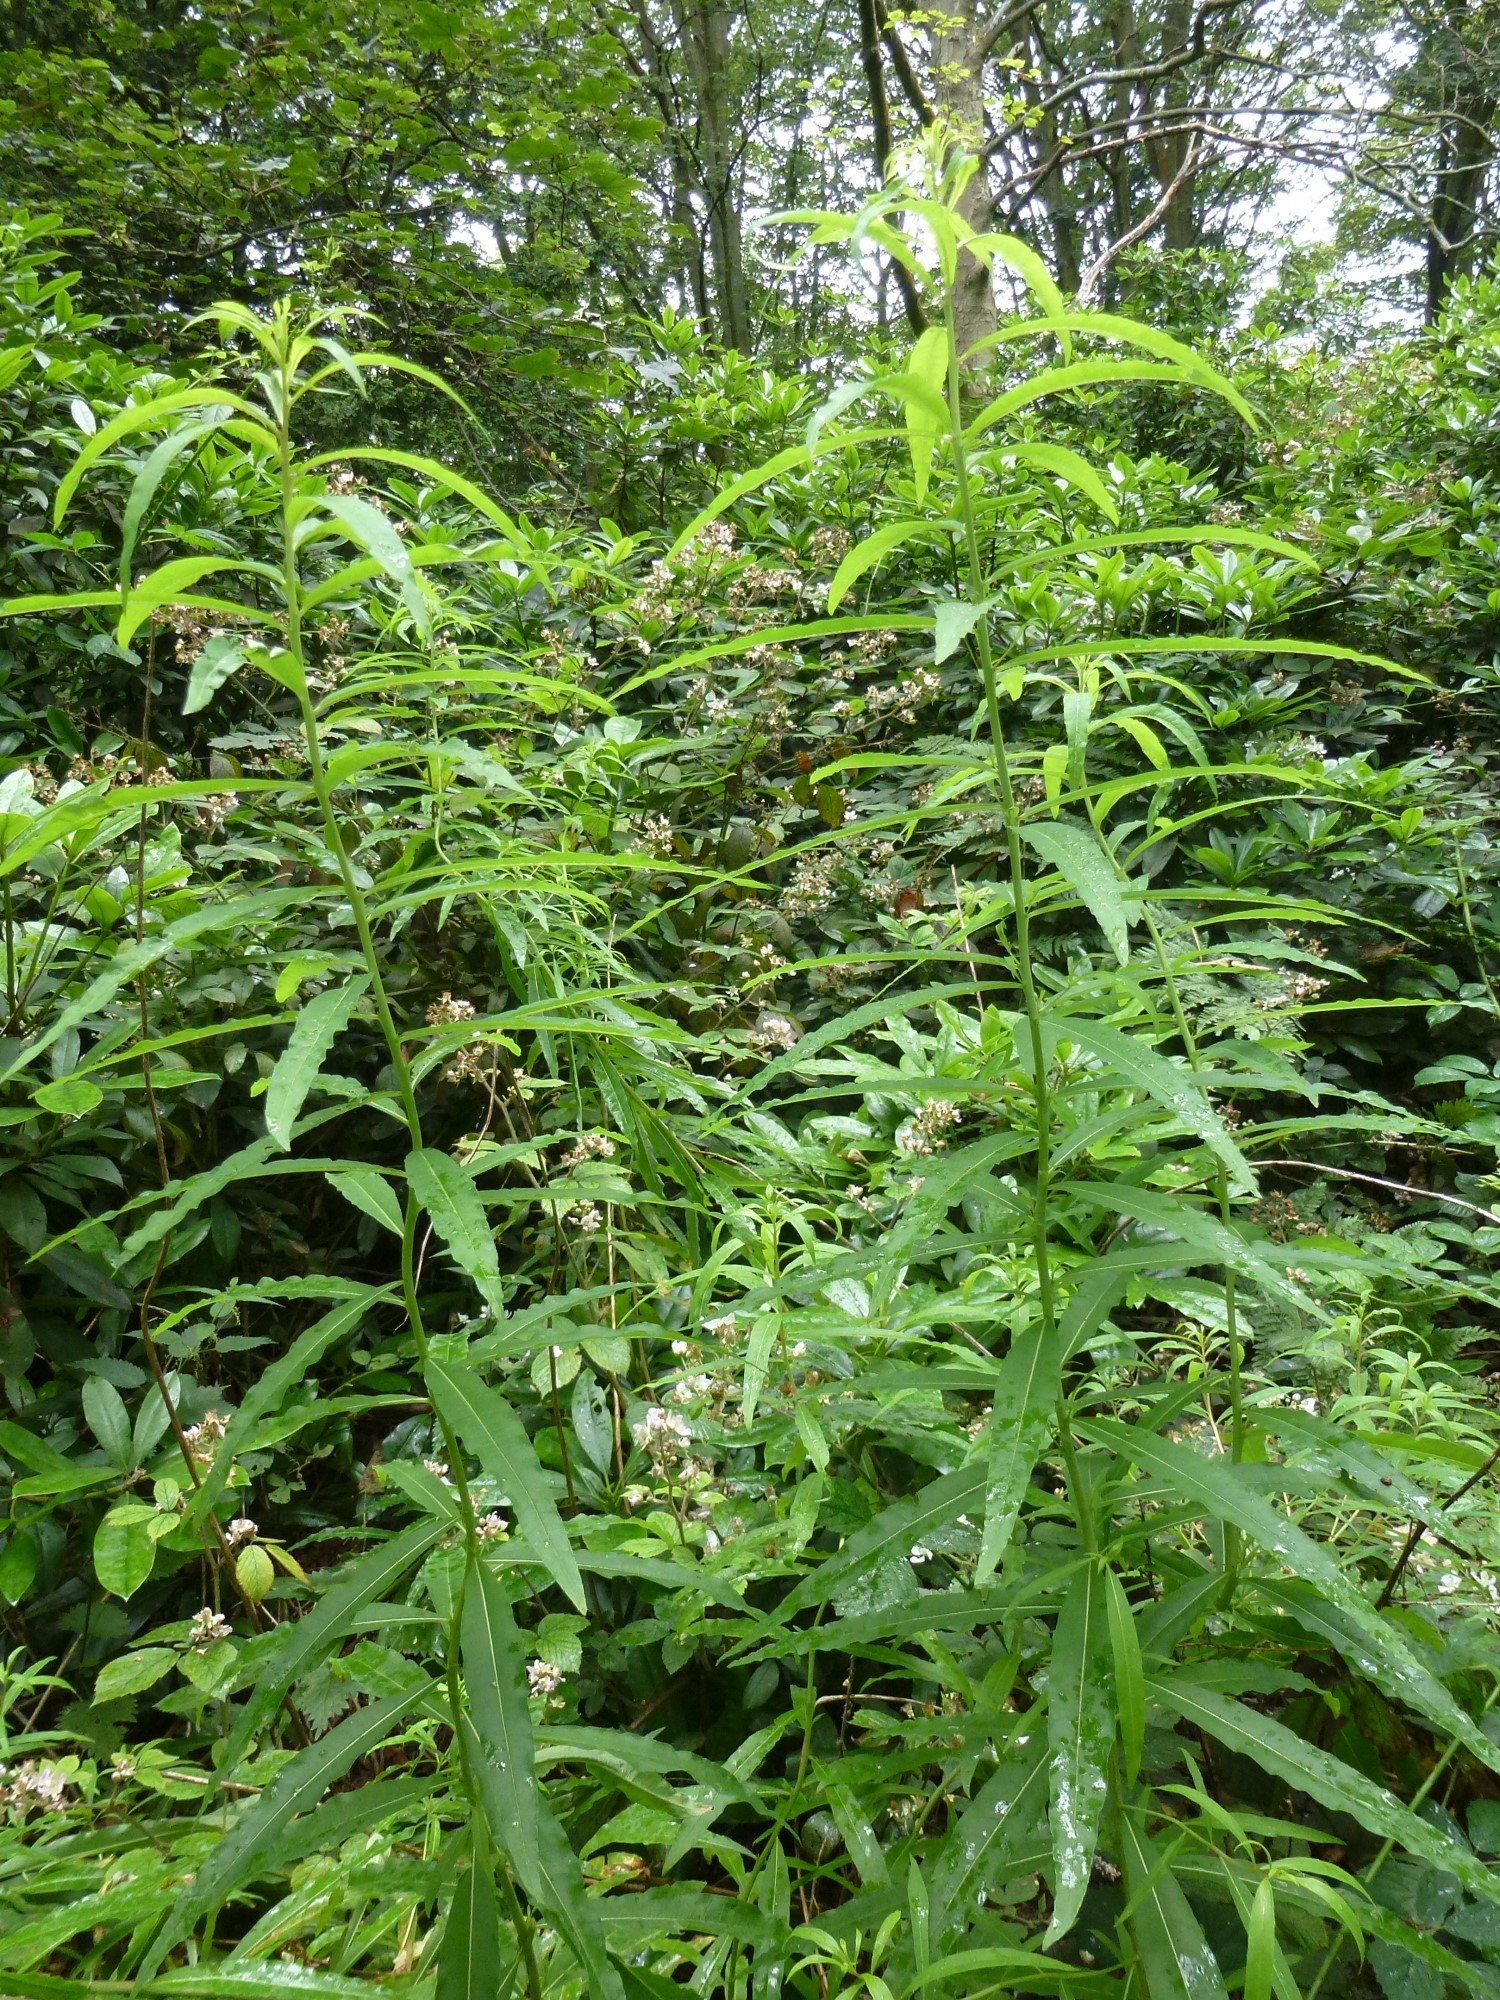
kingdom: Plantae
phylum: Tracheophyta
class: Magnoliopsida
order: Myrtales
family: Onagraceae
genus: Chamaenerion
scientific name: Chamaenerion angustifolium
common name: Fireweed
